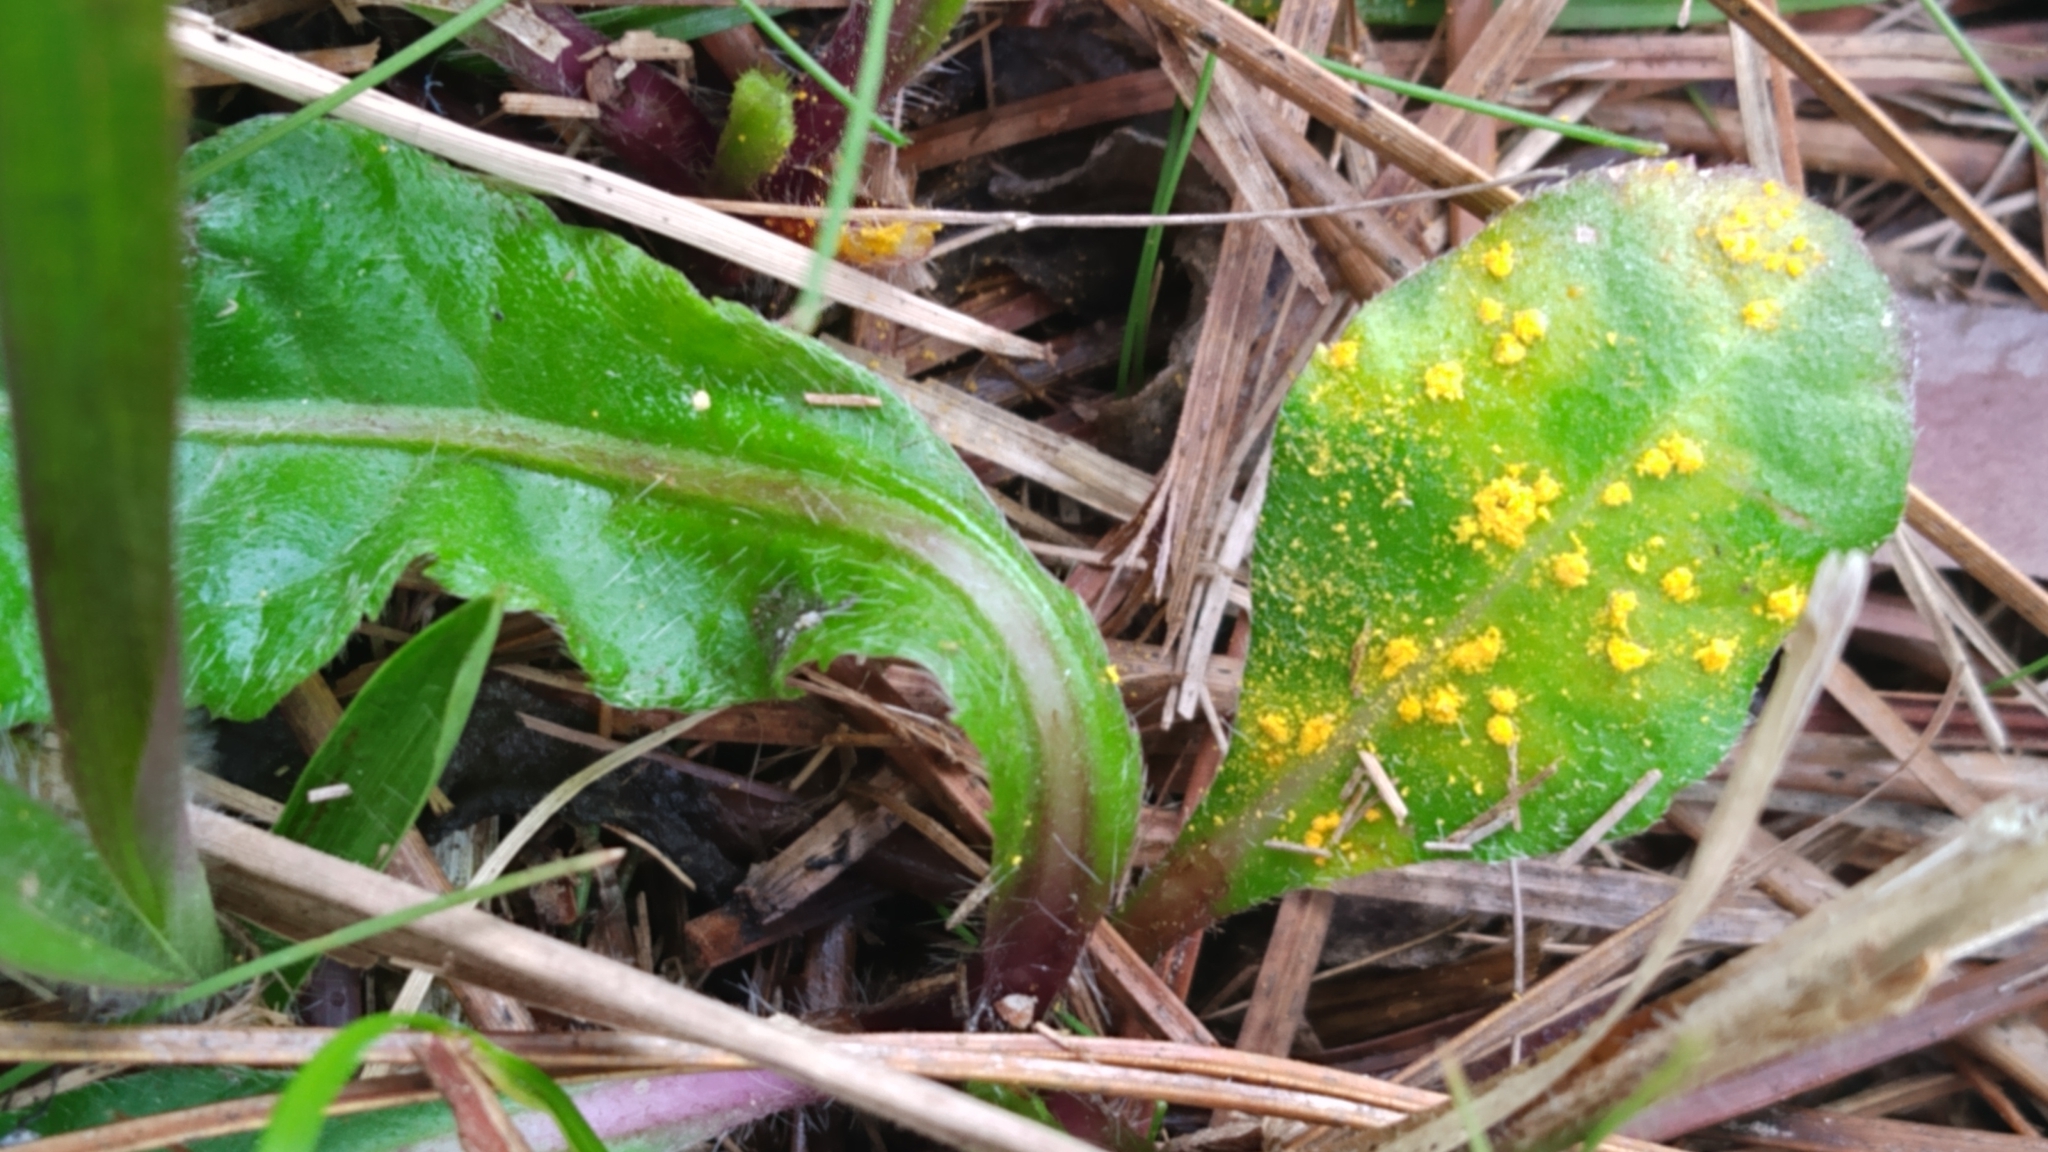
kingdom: Fungi
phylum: Basidiomycota
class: Pucciniomycetes
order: Pucciniales
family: Coleosporiaceae
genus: Coleosporium
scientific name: Coleosporium elephantopodis
